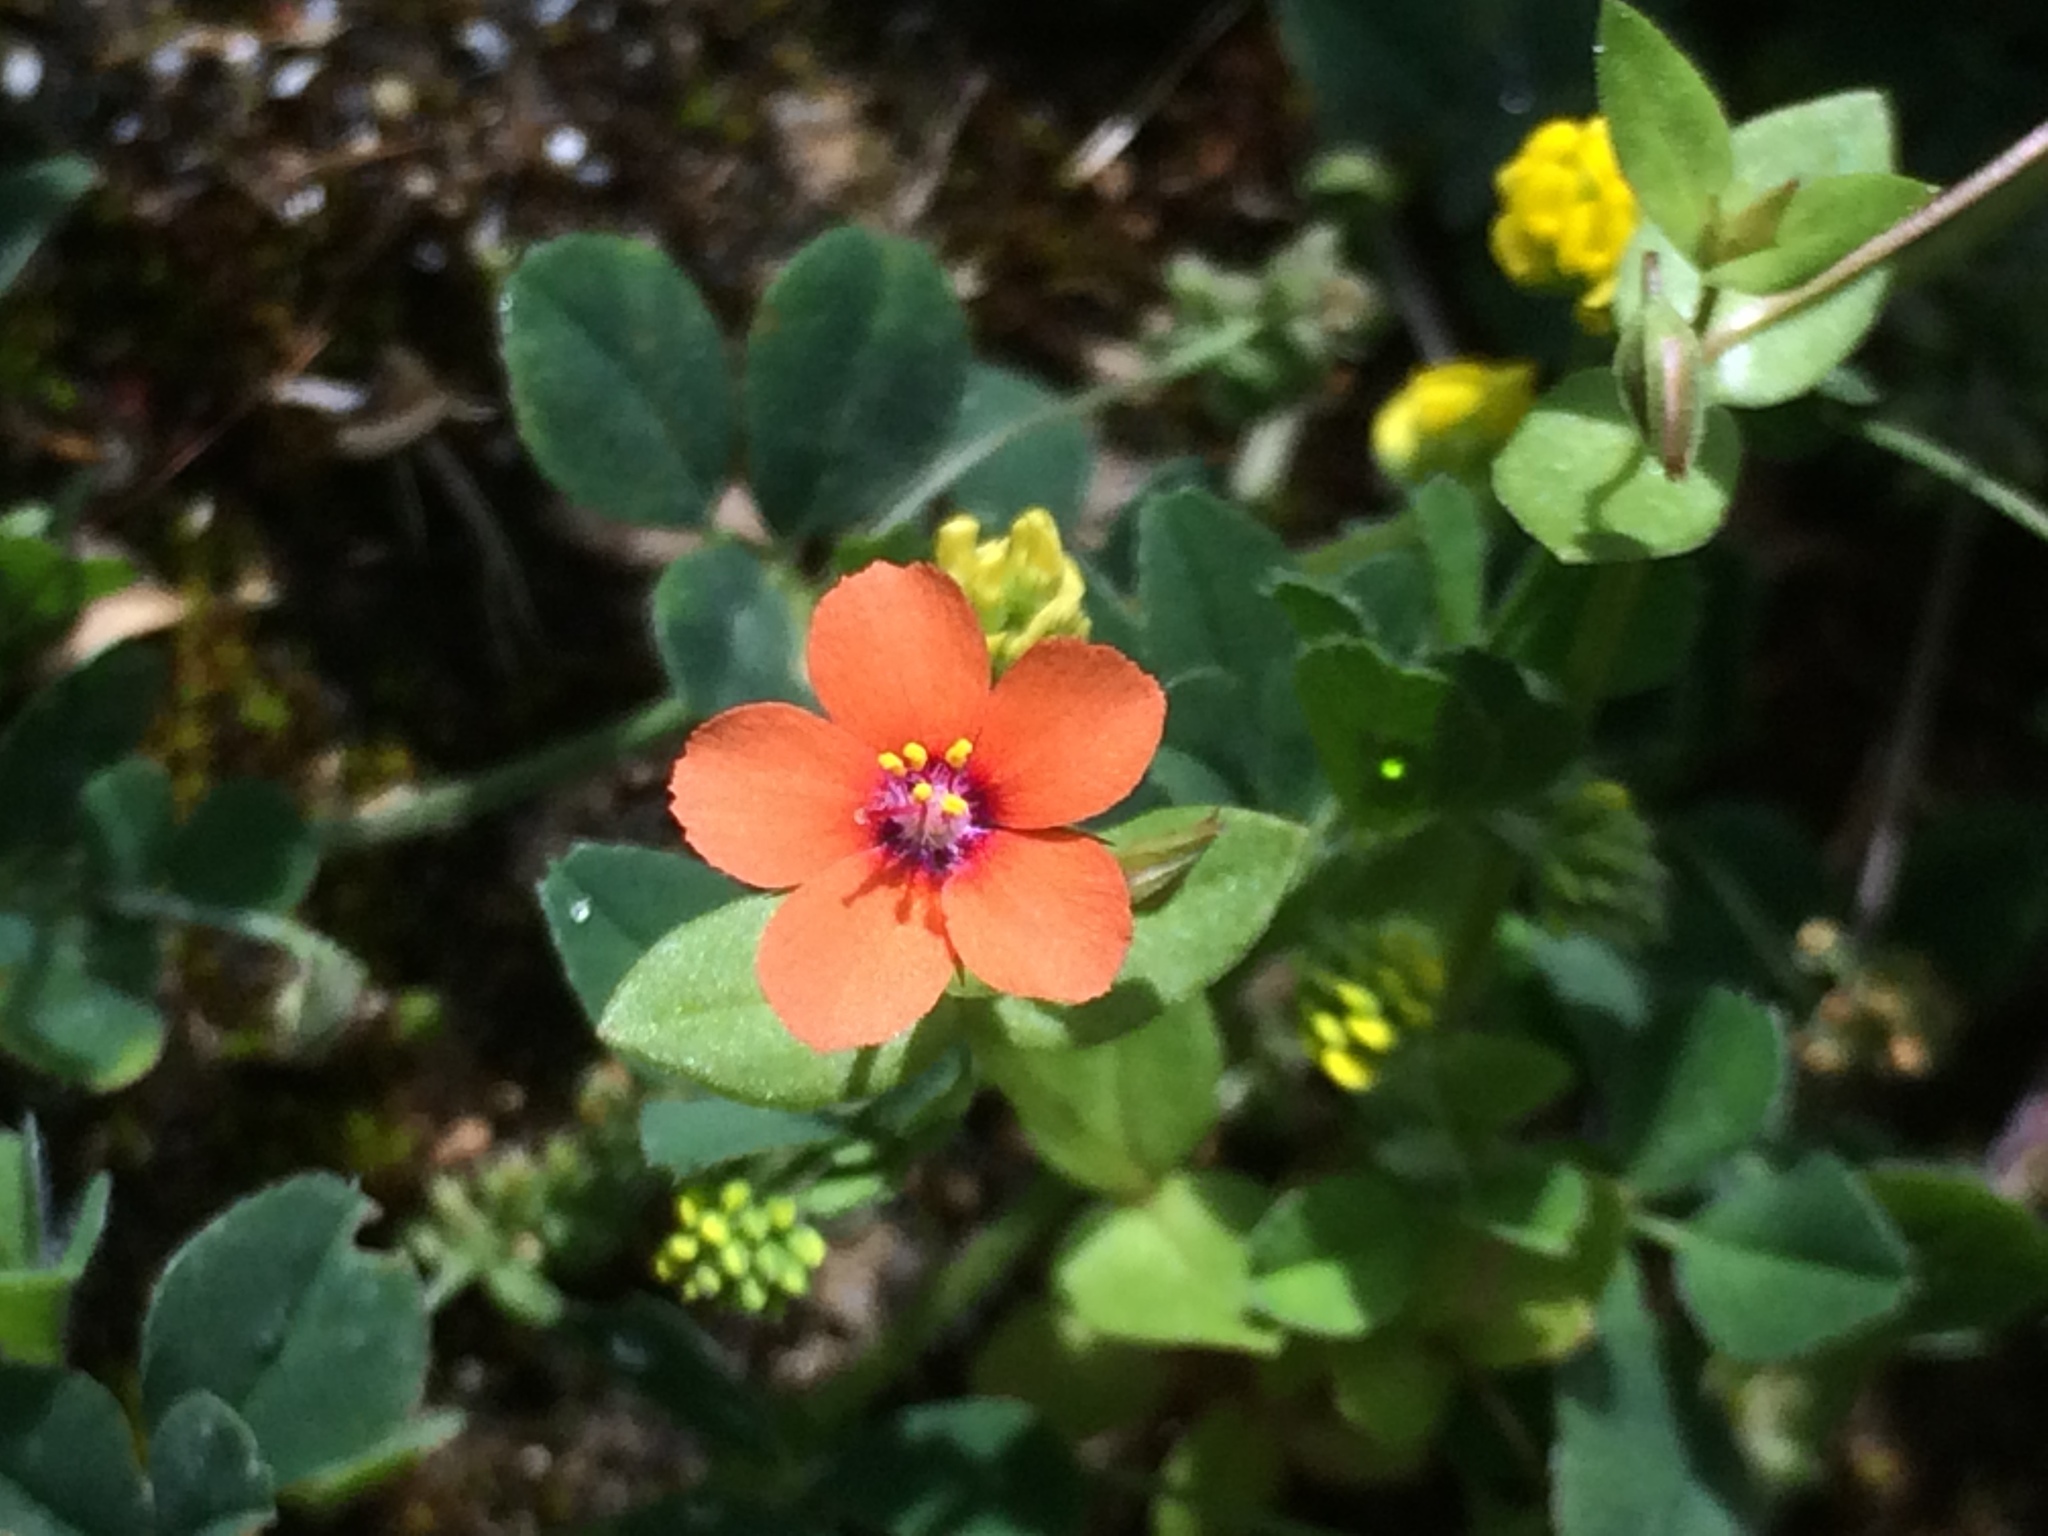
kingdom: Plantae
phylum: Tracheophyta
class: Magnoliopsida
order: Ericales
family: Primulaceae
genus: Lysimachia
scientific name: Lysimachia arvensis
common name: Scarlet pimpernel
